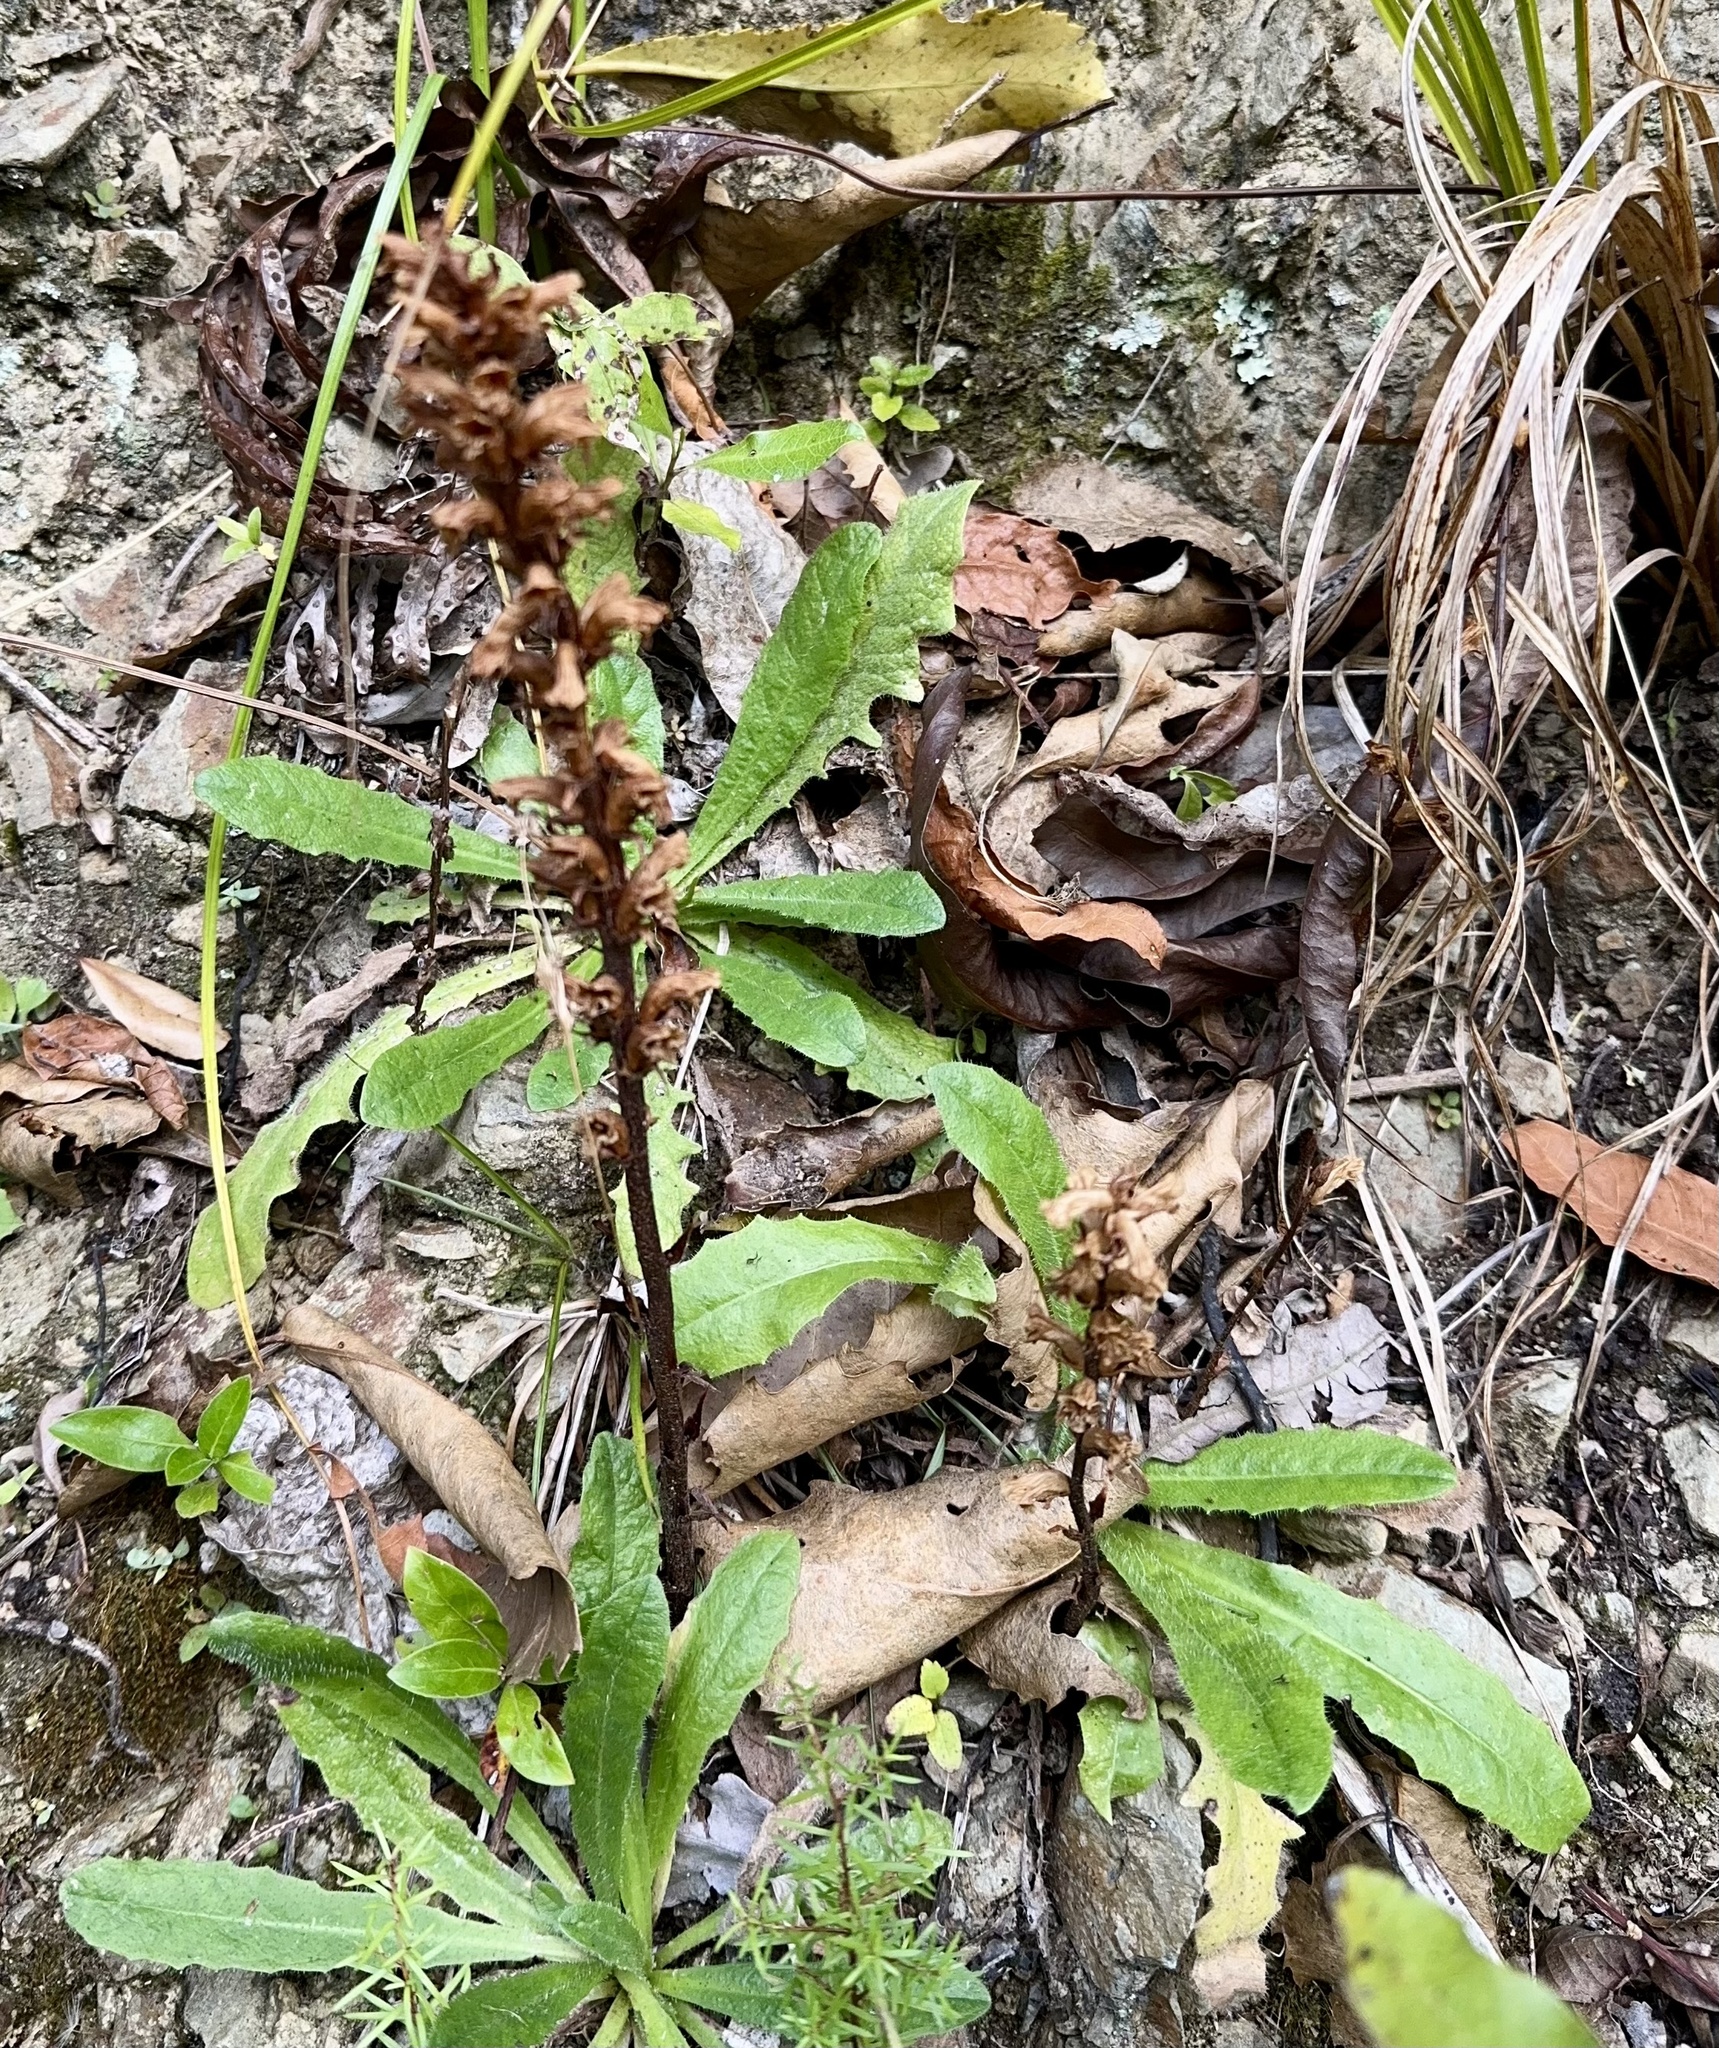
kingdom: Plantae
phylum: Tracheophyta
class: Magnoliopsida
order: Lamiales
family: Orobanchaceae
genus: Orobanche
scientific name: Orobanche minor
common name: Common broomrape
